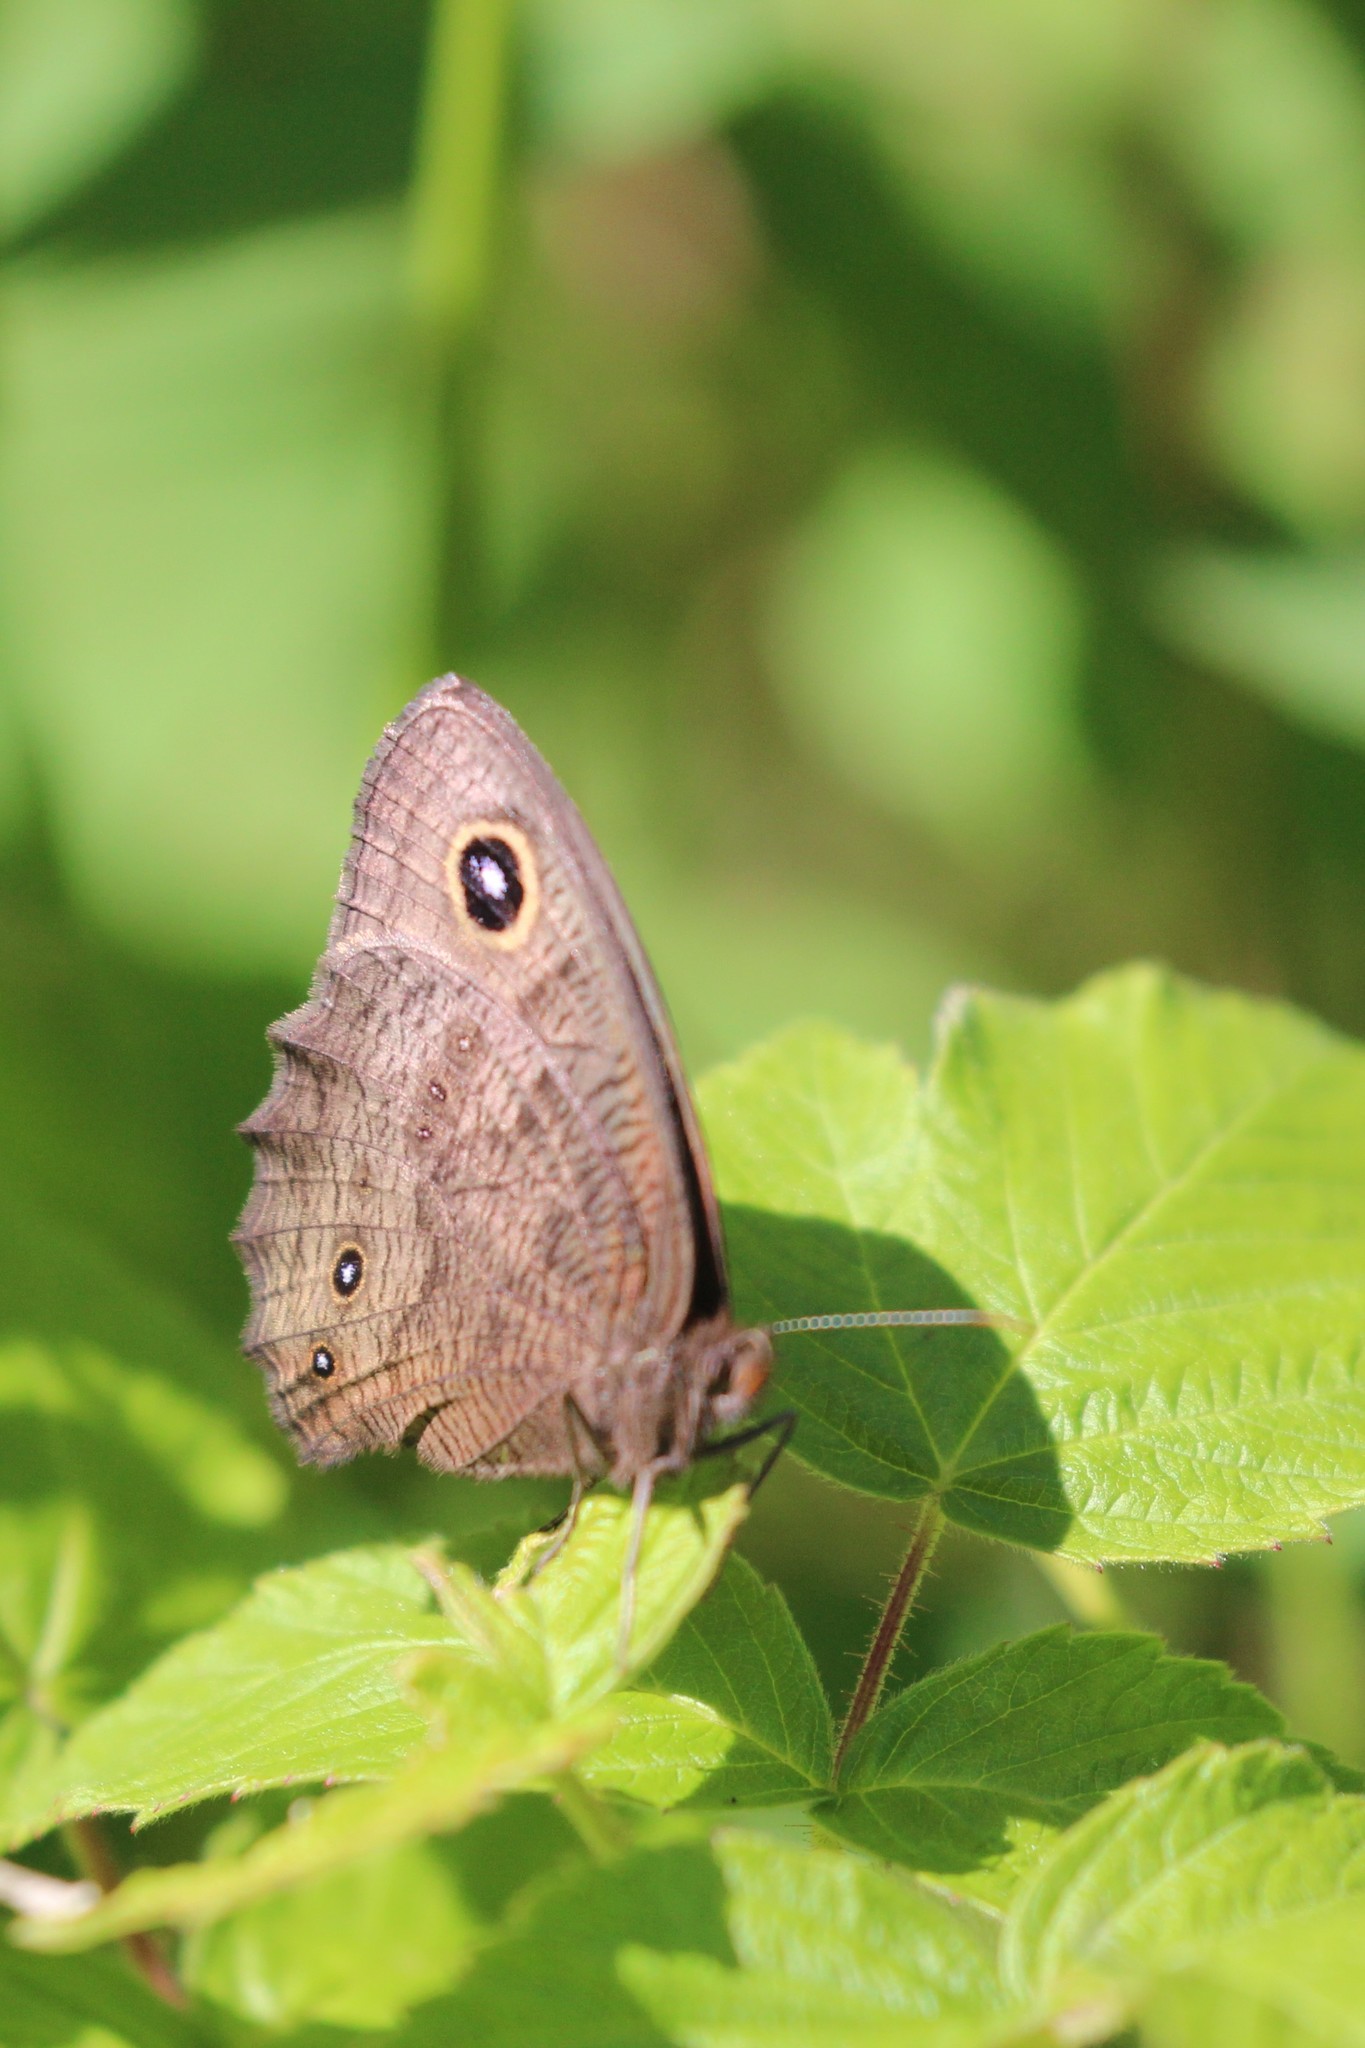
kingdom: Animalia
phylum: Arthropoda
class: Insecta
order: Lepidoptera
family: Nymphalidae
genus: Cercyonis
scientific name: Cercyonis pegala
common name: Common wood-nymph
